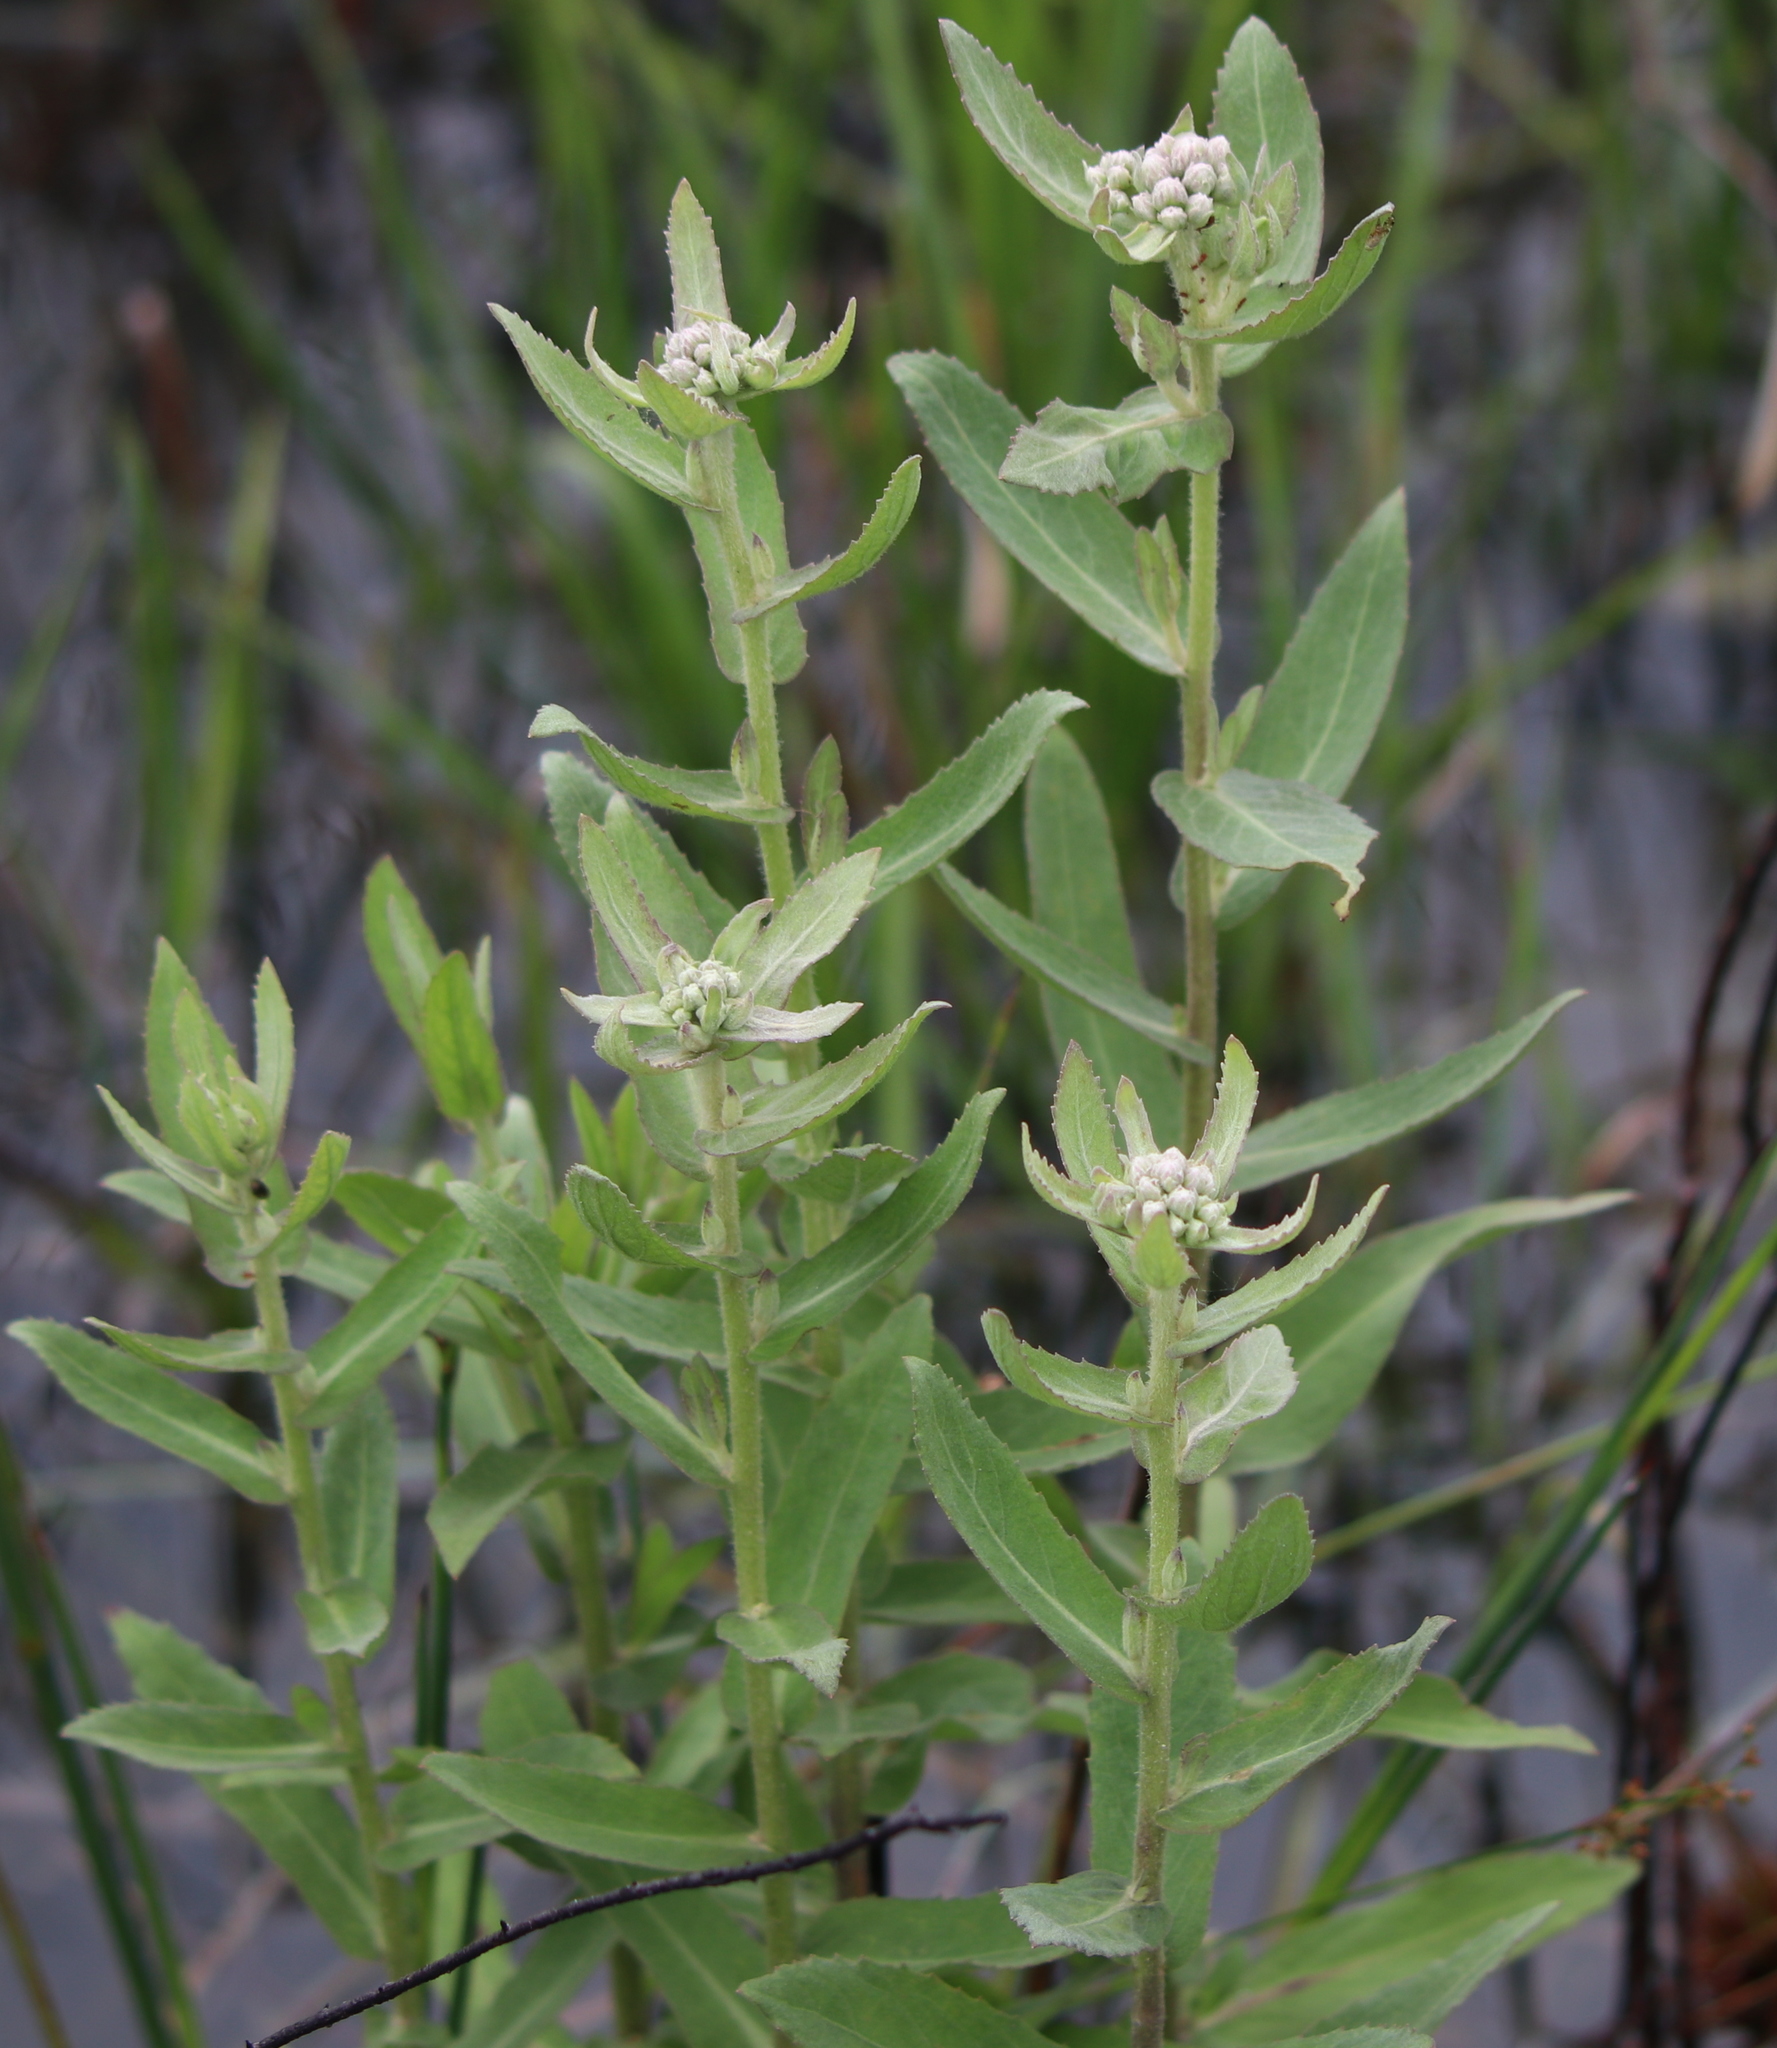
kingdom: Plantae
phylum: Tracheophyta
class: Magnoliopsida
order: Asterales
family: Asteraceae
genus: Pluchea
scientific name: Pluchea foetida
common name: Stinking camphorweed
